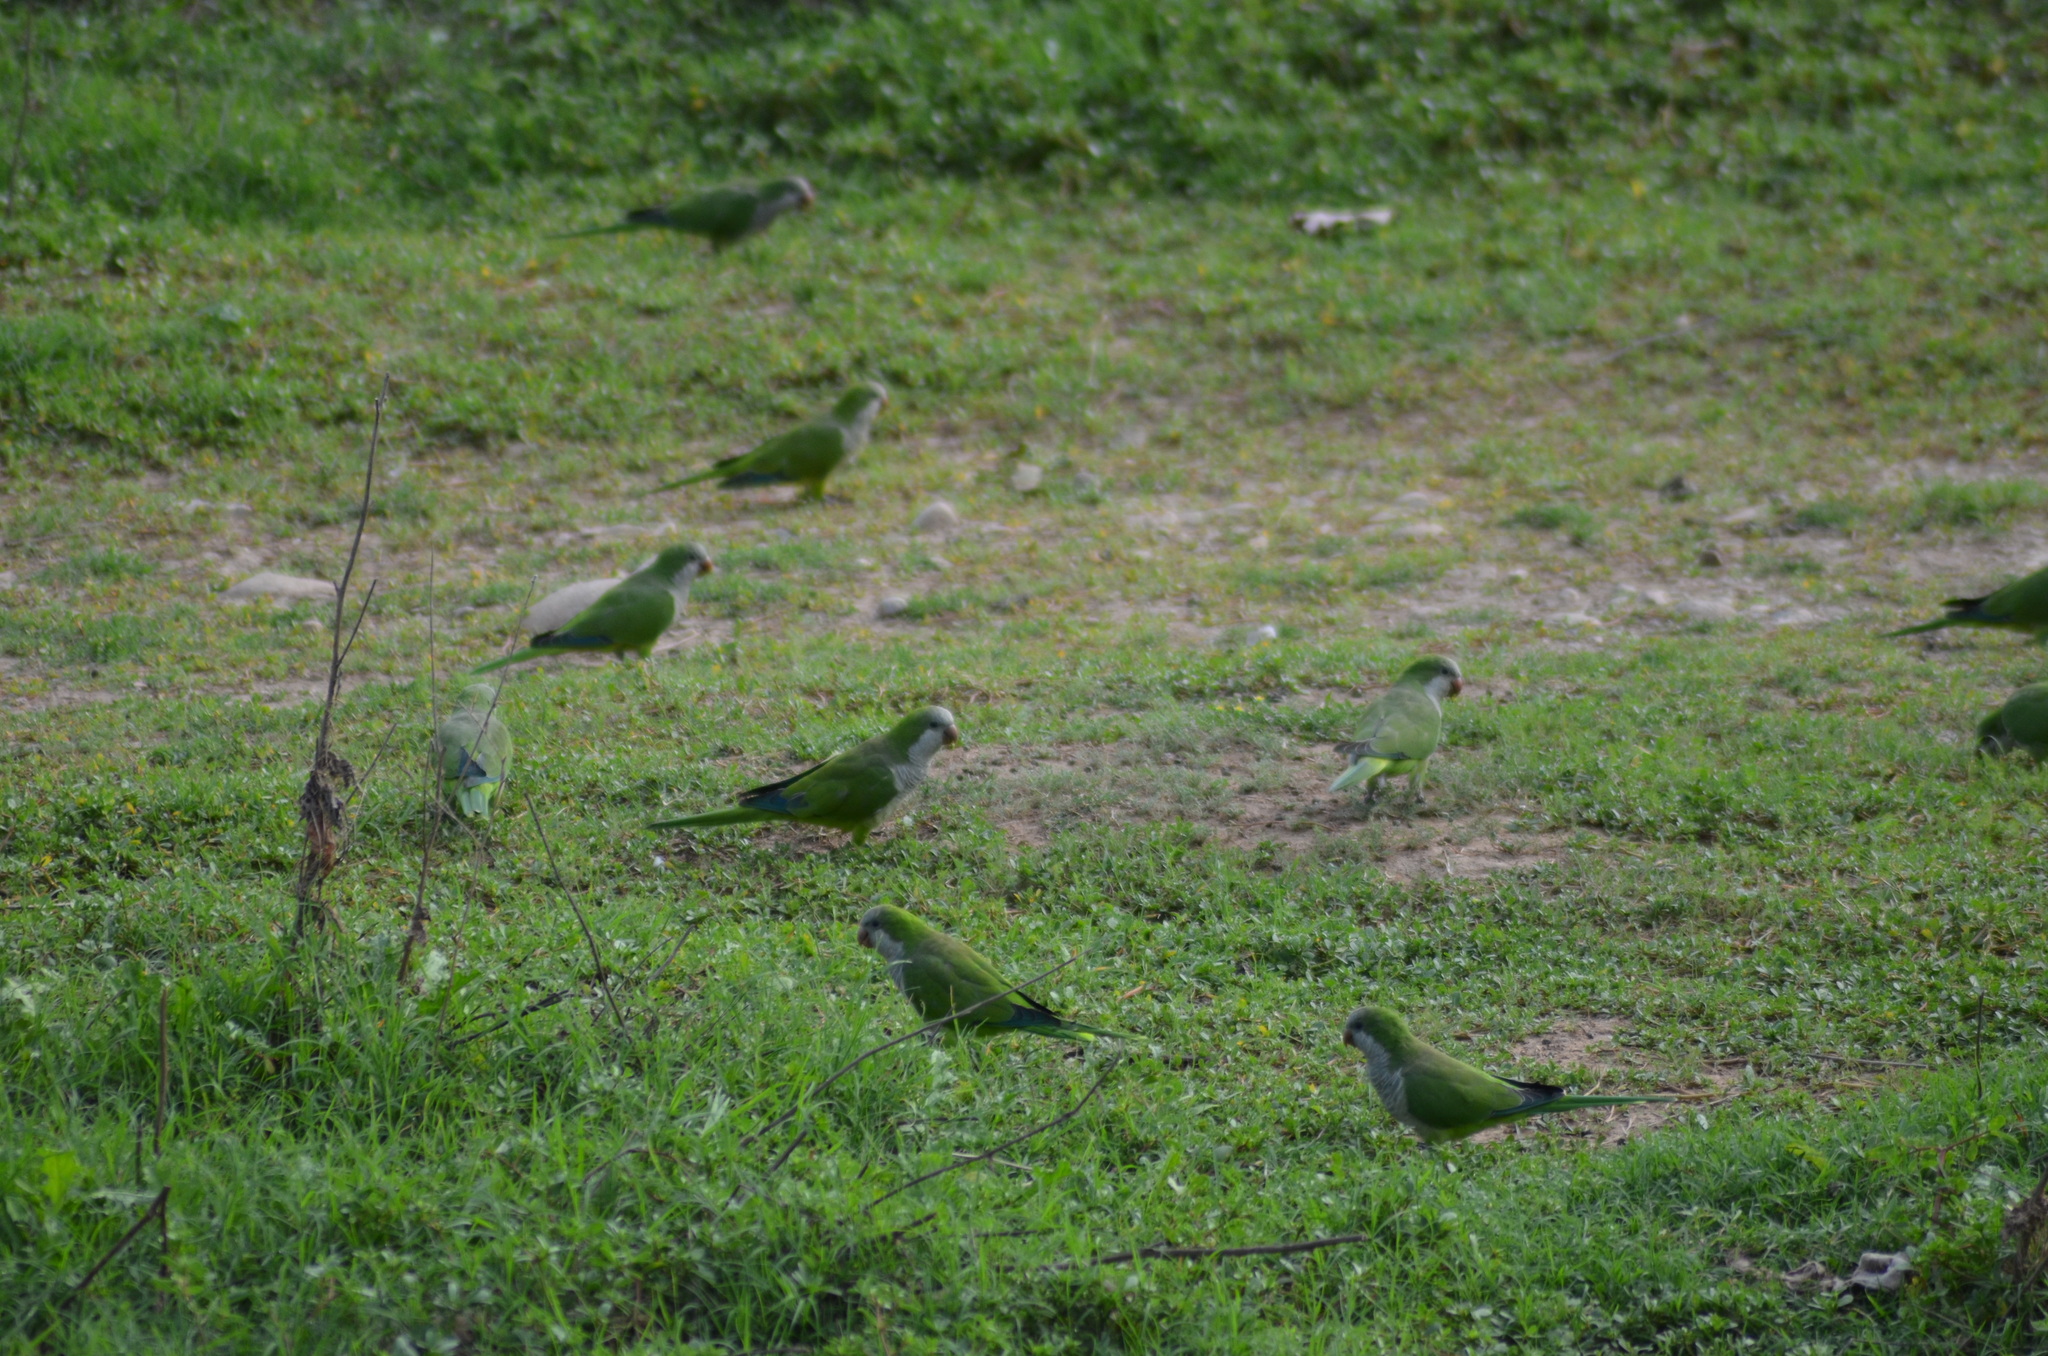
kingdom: Animalia
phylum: Chordata
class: Aves
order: Psittaciformes
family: Psittacidae
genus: Myiopsitta
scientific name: Myiopsitta monachus
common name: Monk parakeet
